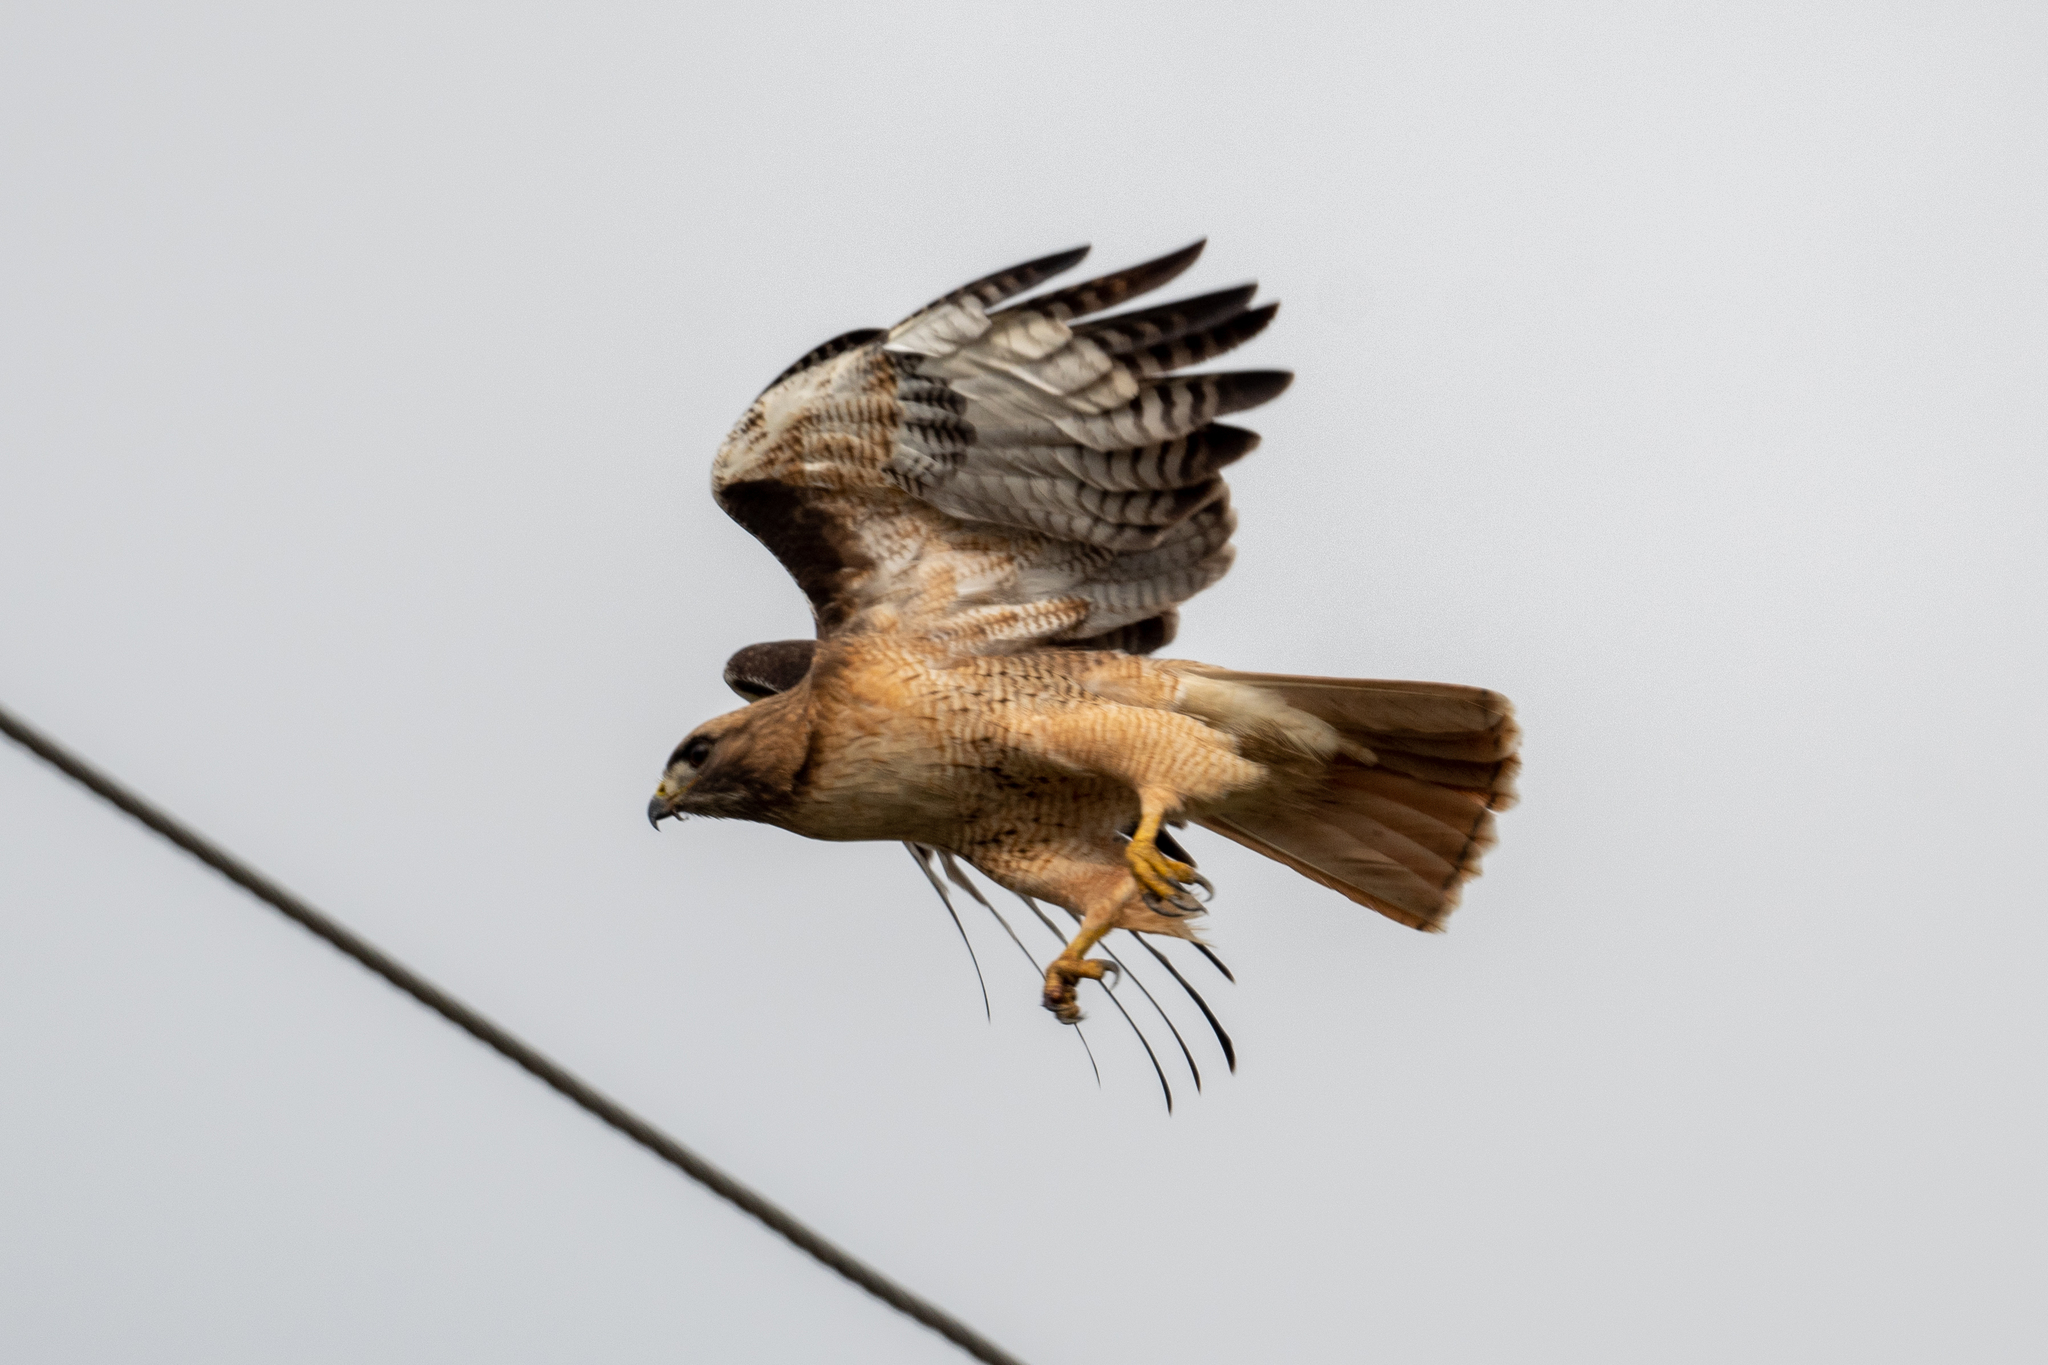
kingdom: Animalia
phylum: Chordata
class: Aves
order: Accipitriformes
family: Accipitridae
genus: Buteo
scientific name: Buteo jamaicensis
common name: Red-tailed hawk
